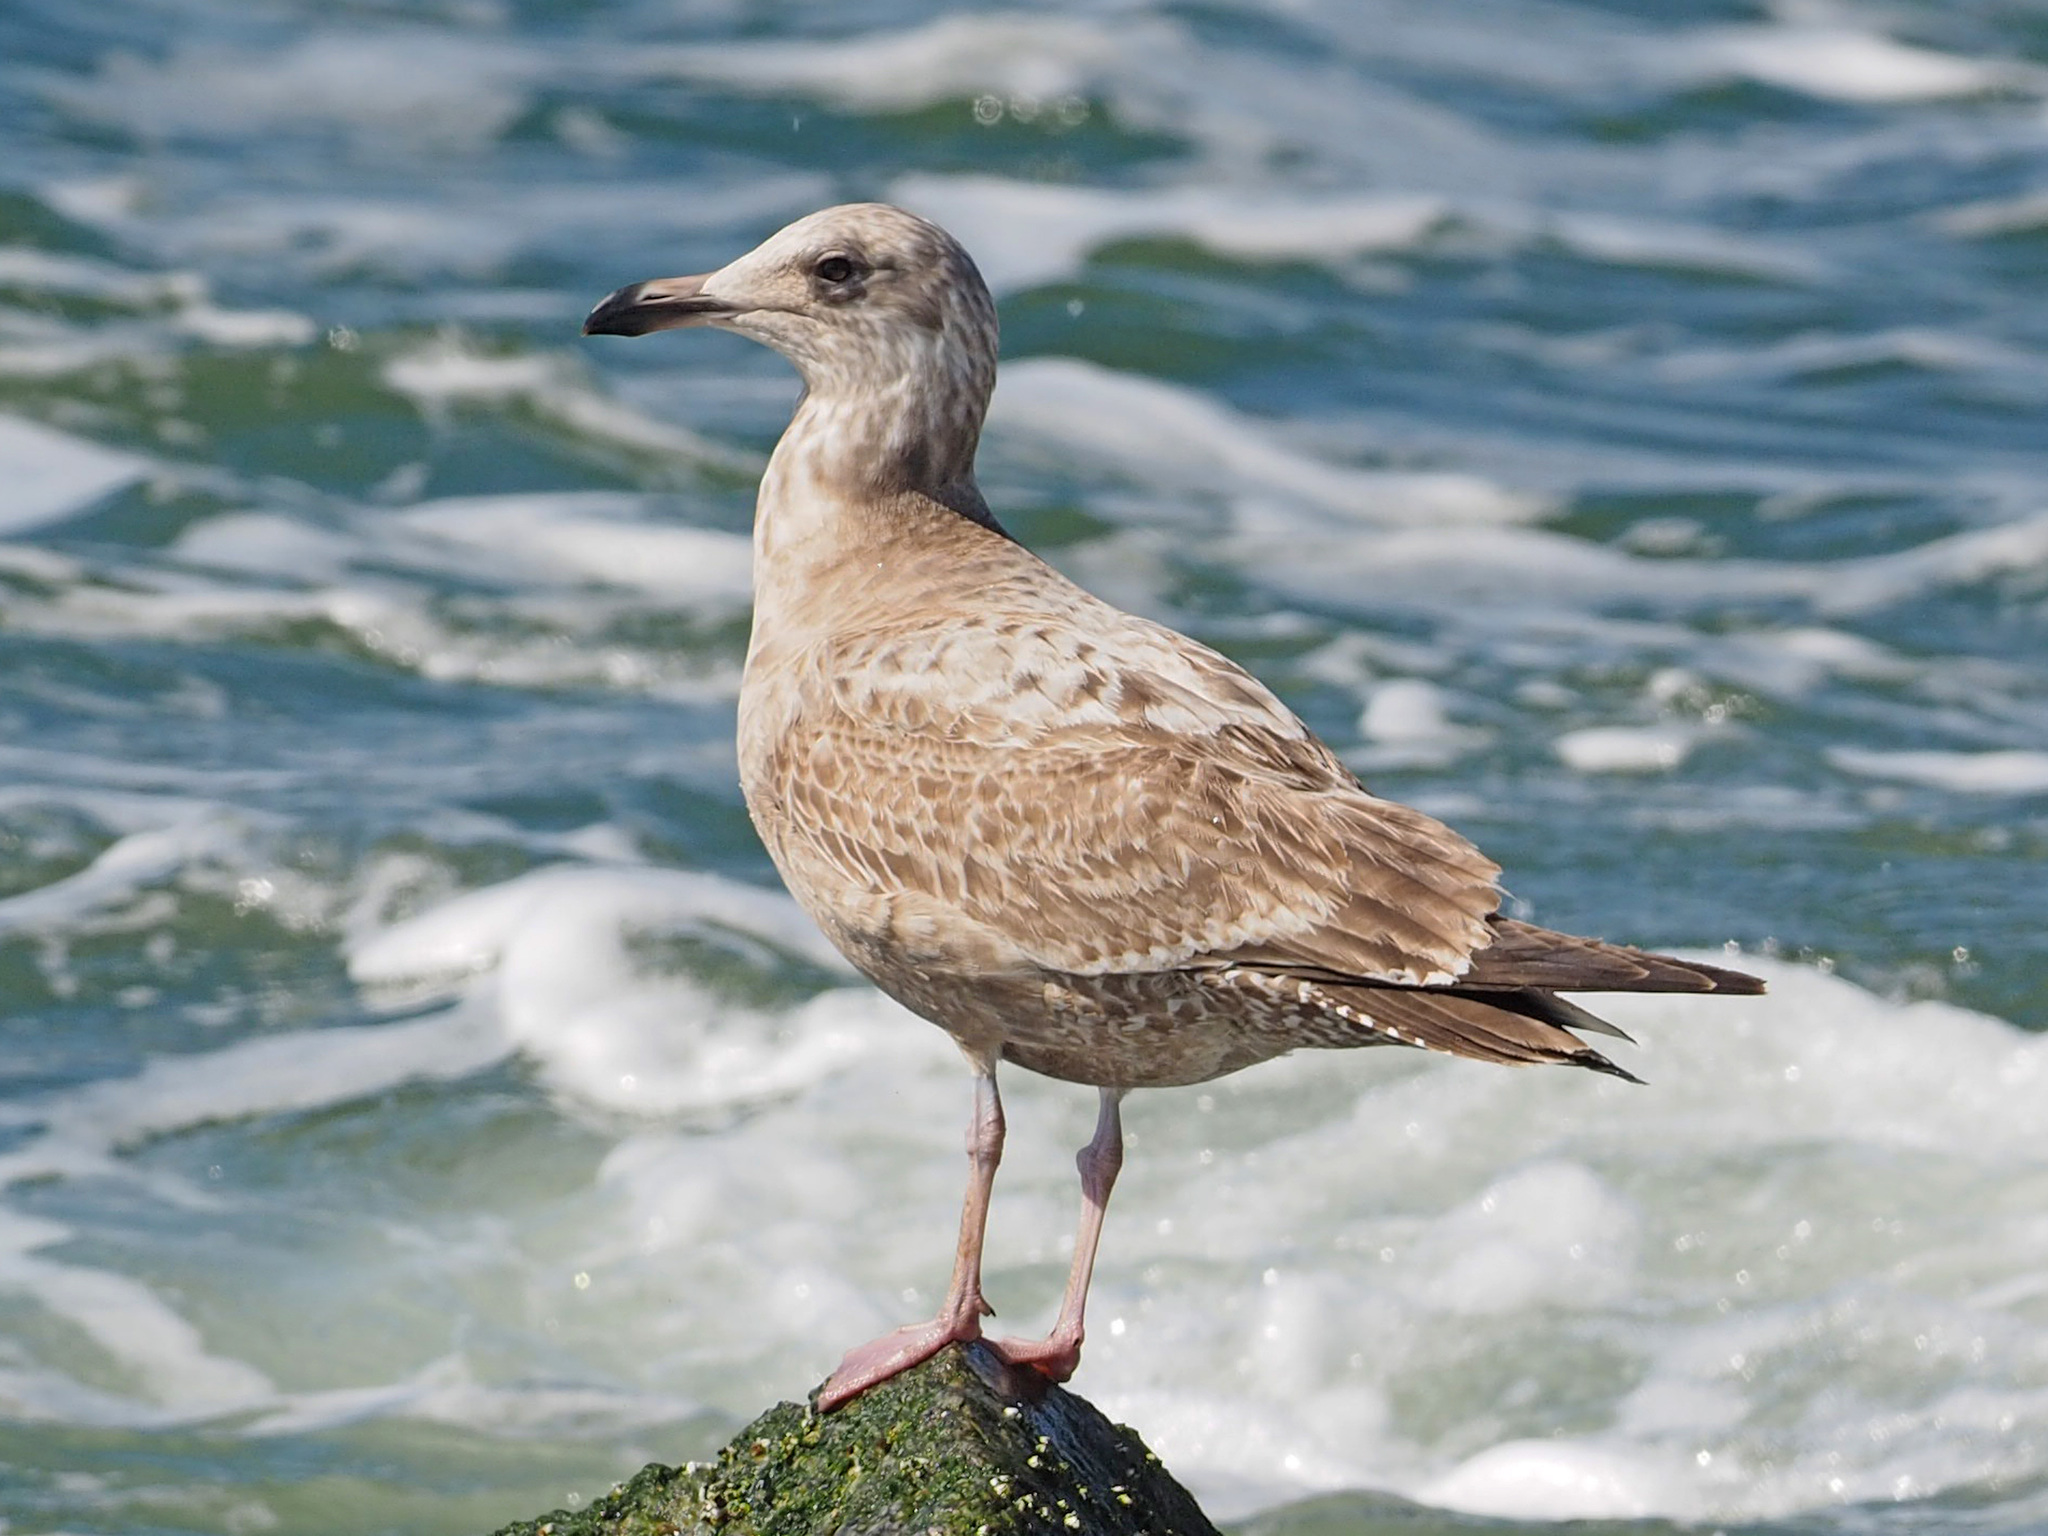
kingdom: Animalia
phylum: Chordata
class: Aves
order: Charadriiformes
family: Laridae
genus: Larus
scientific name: Larus argentatus
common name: Herring gull
